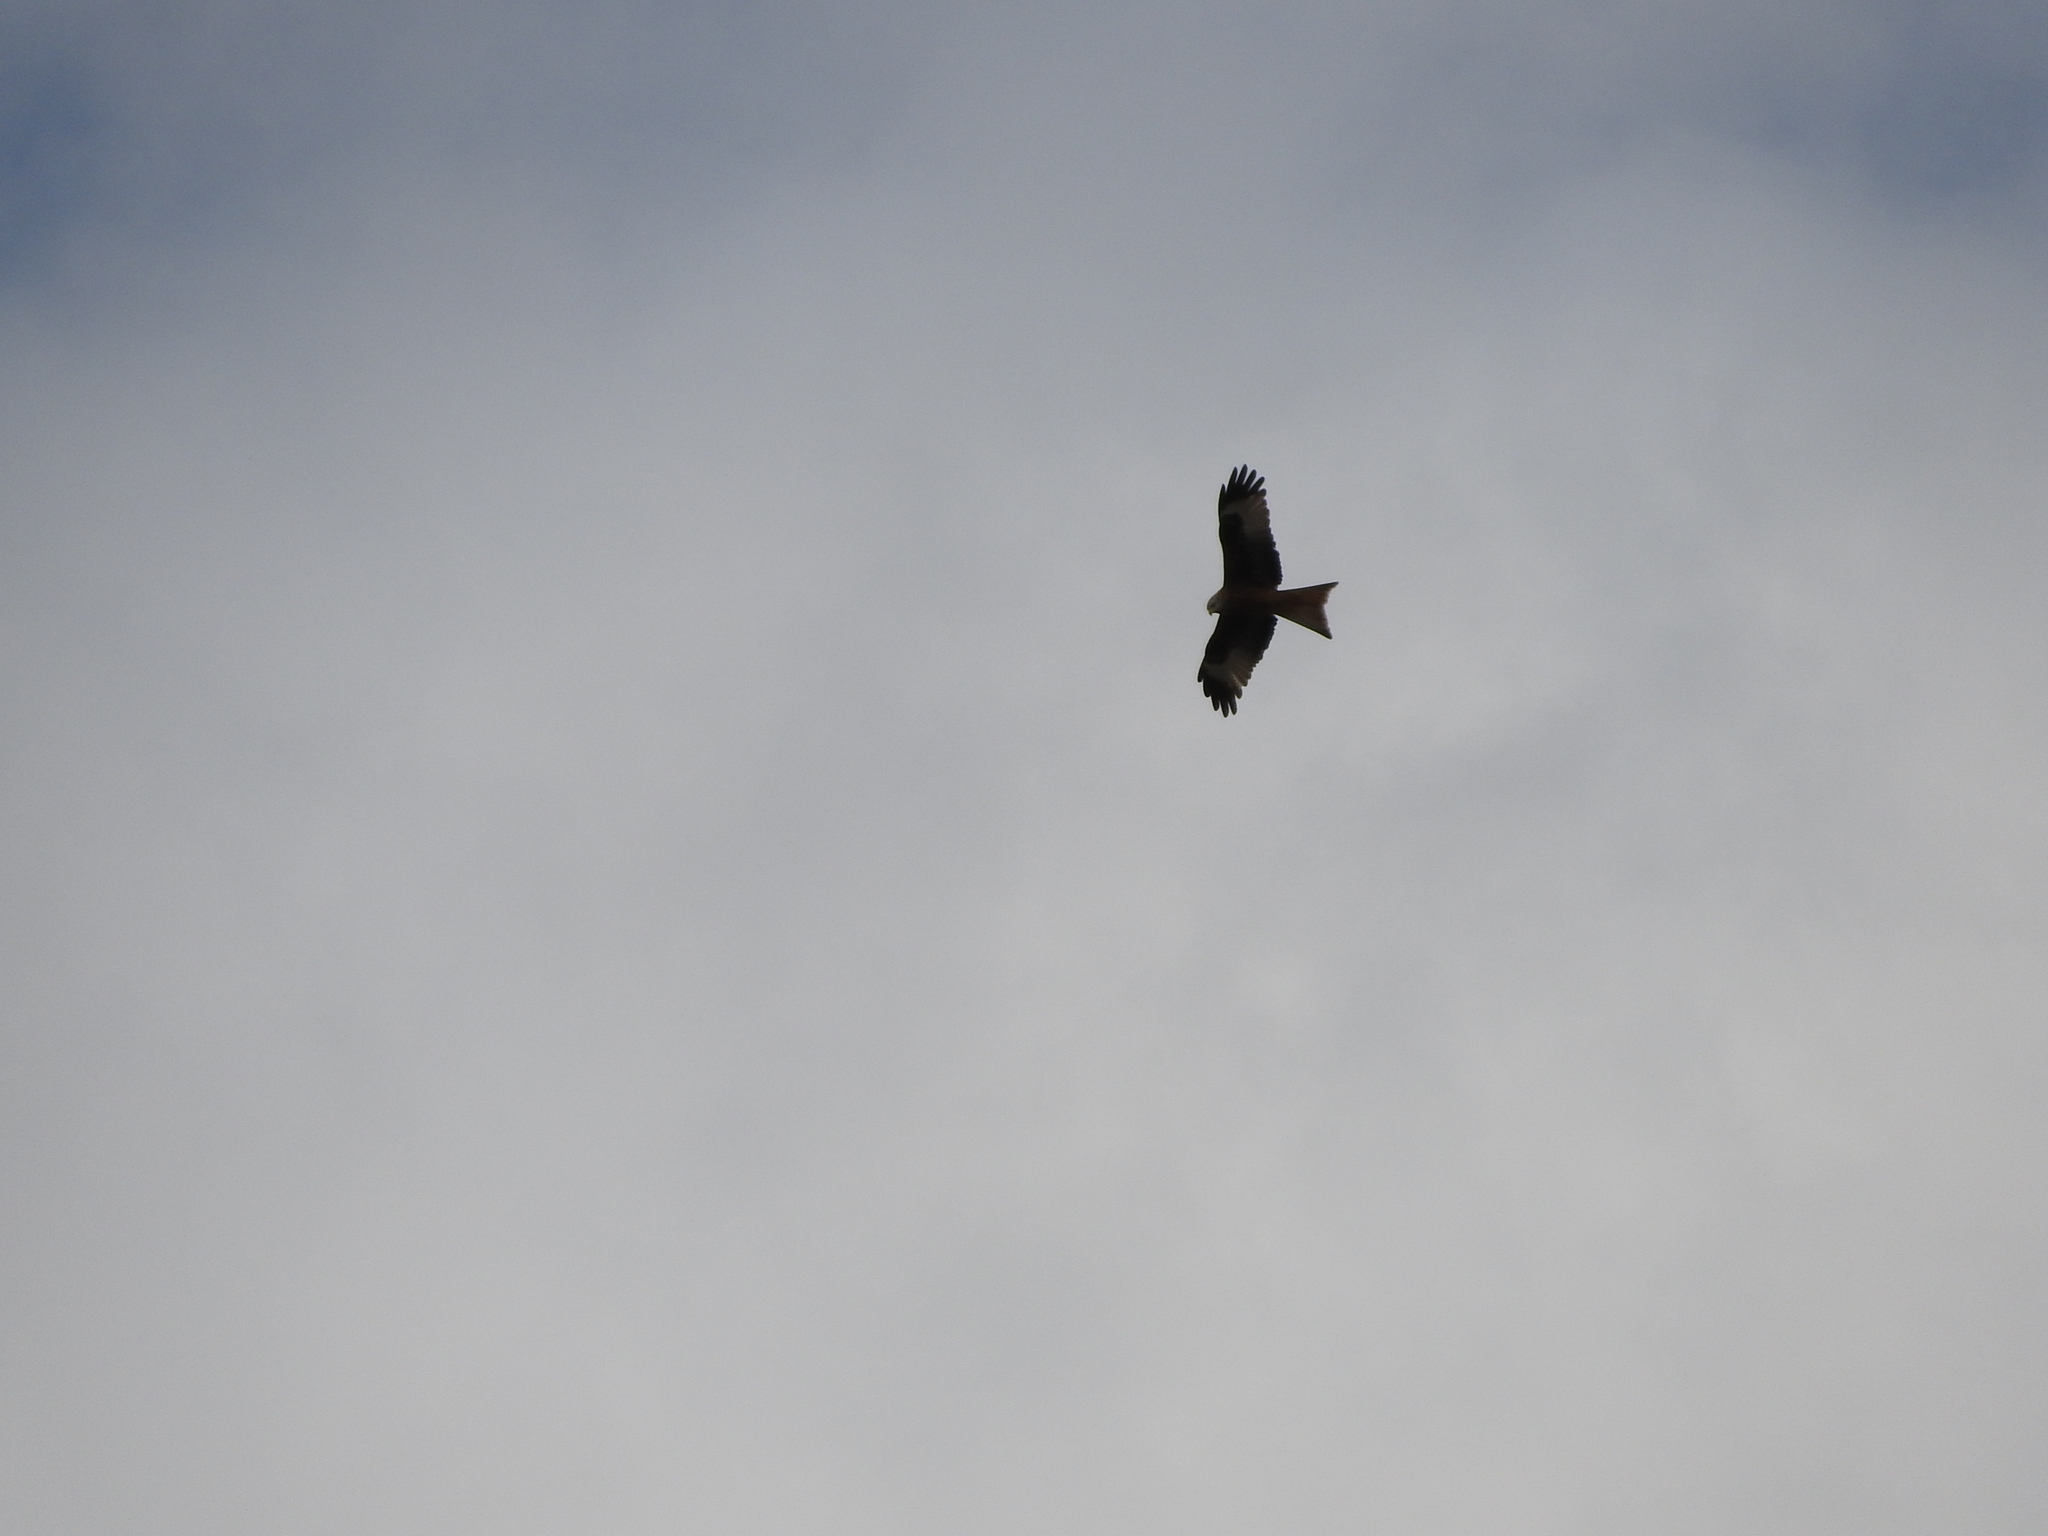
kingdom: Animalia
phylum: Chordata
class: Aves
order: Accipitriformes
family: Accipitridae
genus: Milvus
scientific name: Milvus milvus
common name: Red kite
